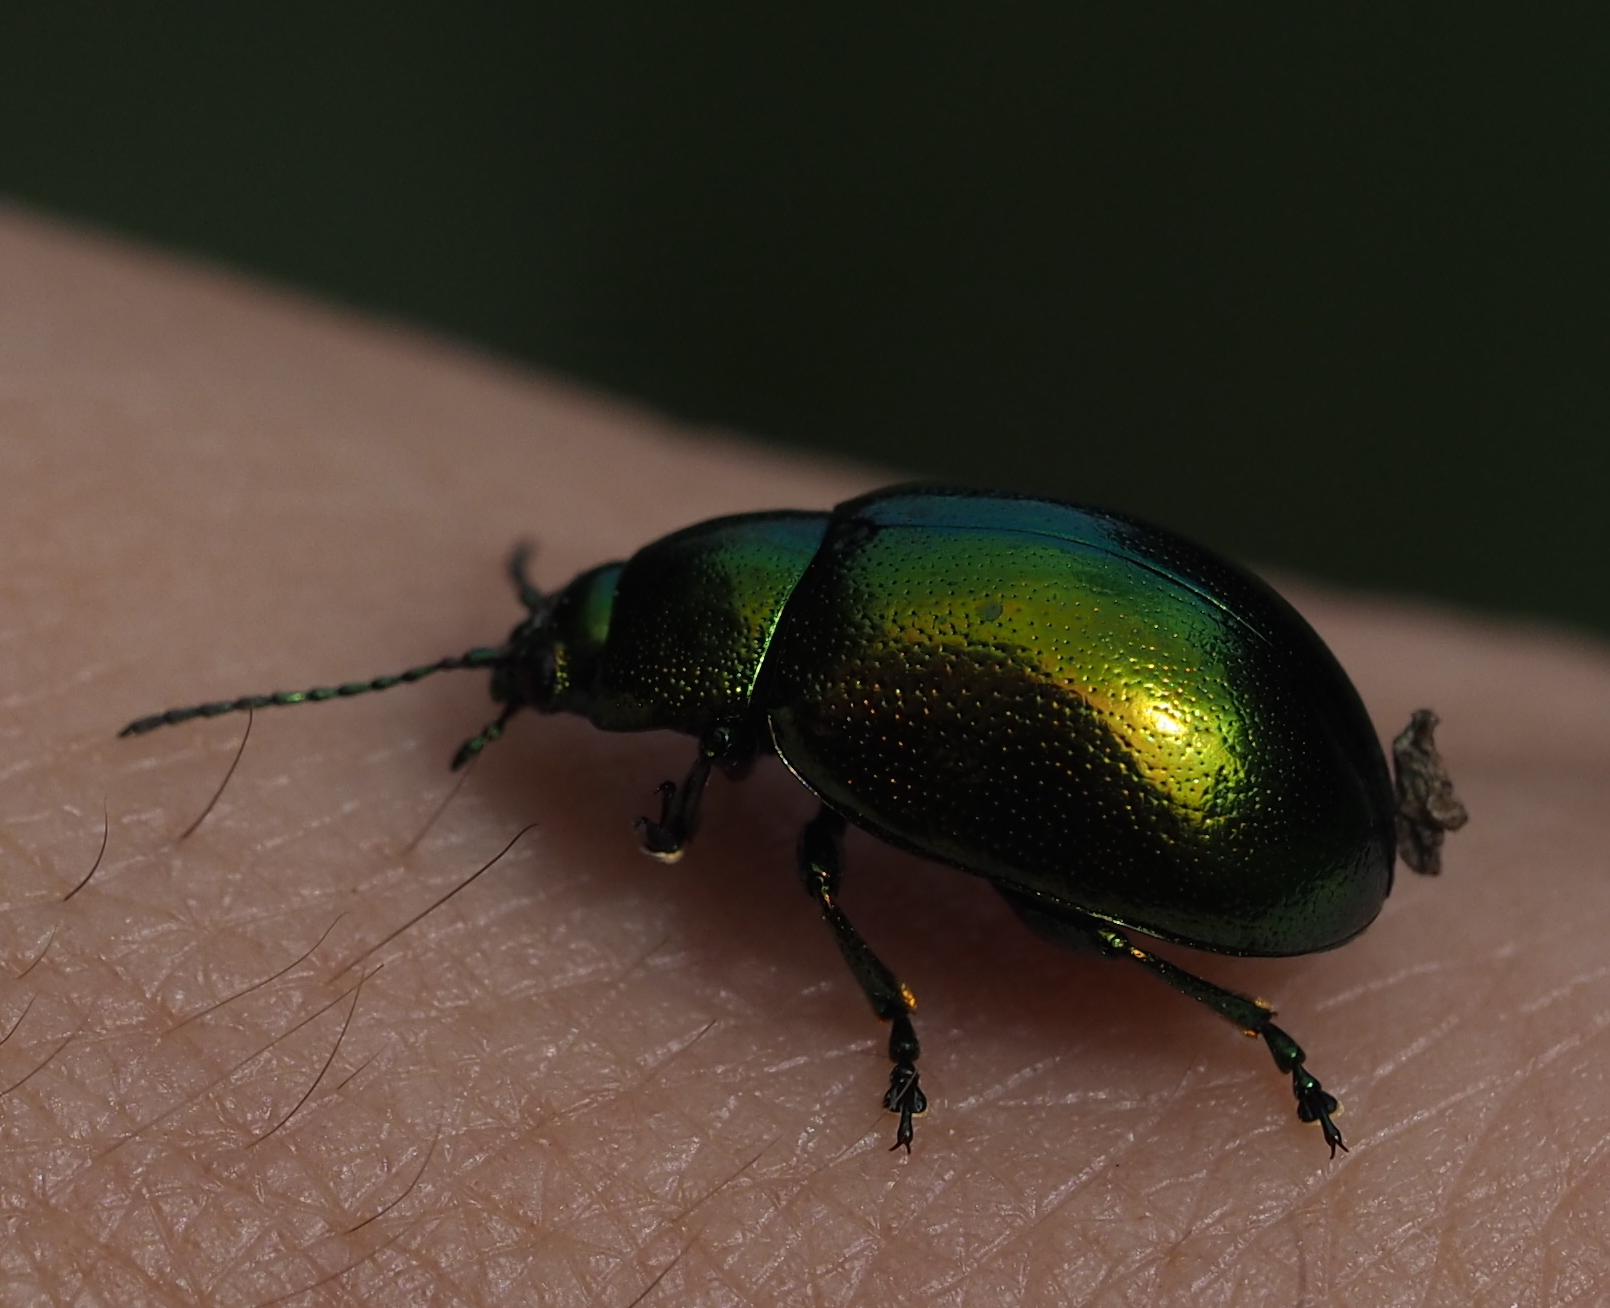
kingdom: Animalia
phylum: Arthropoda
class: Insecta
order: Coleoptera
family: Chrysomelidae
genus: Chrysolina
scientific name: Chrysolina herbacea
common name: Mint leaf beatle
